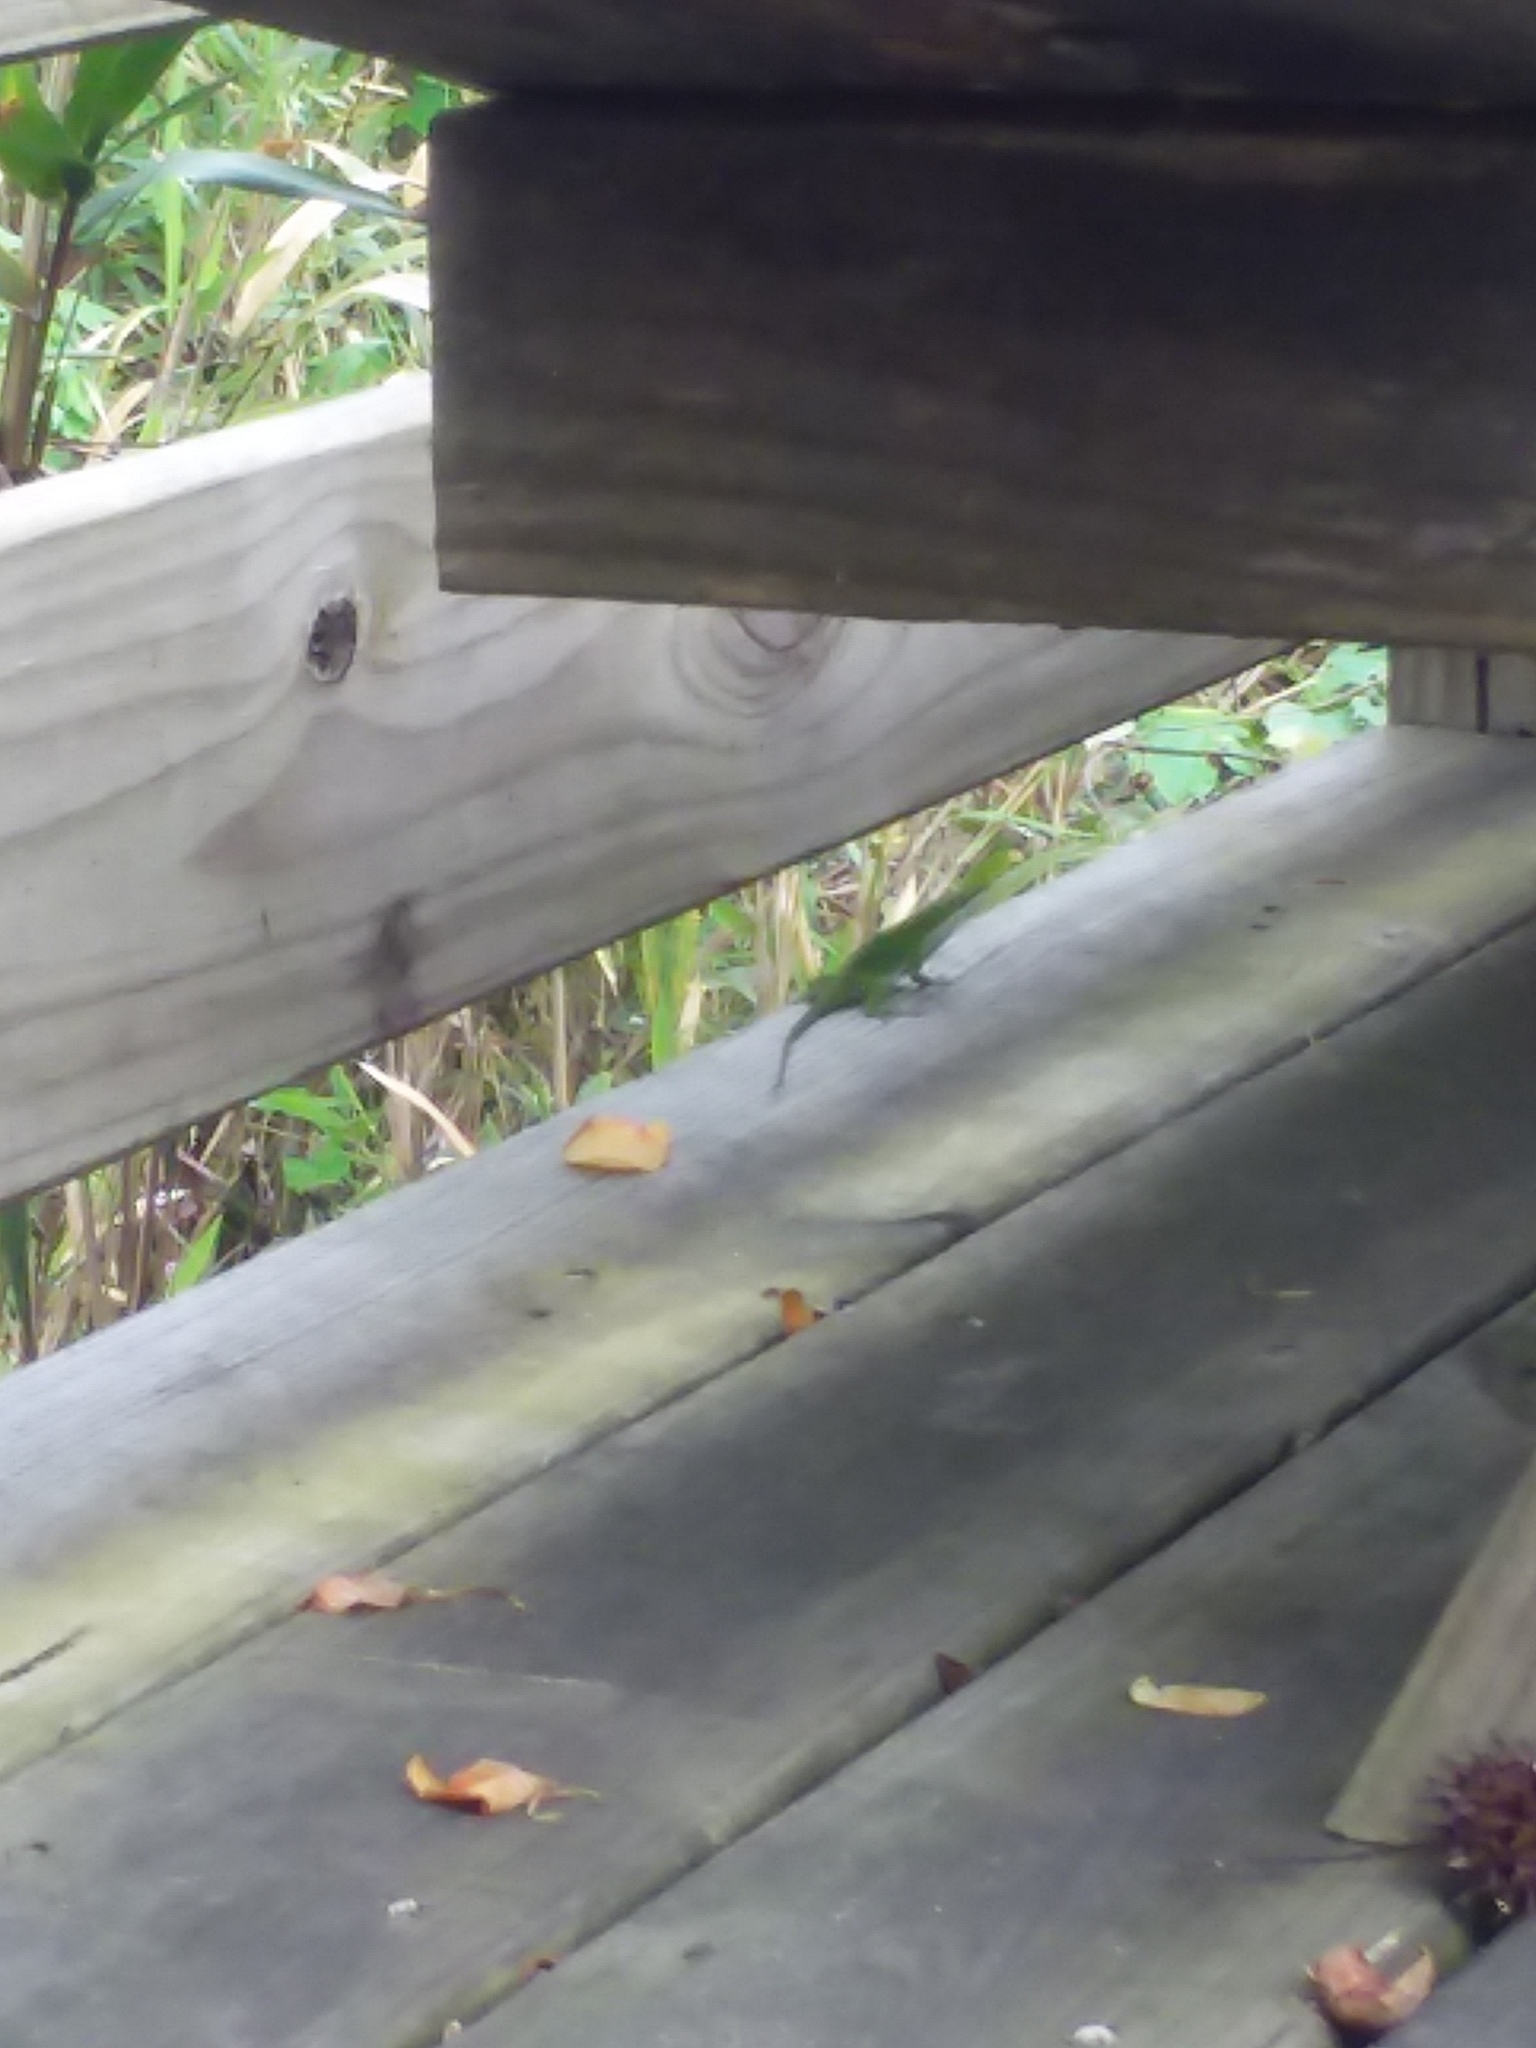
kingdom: Animalia
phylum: Chordata
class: Squamata
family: Dactyloidae
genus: Anolis
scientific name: Anolis carolinensis
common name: Green anole
